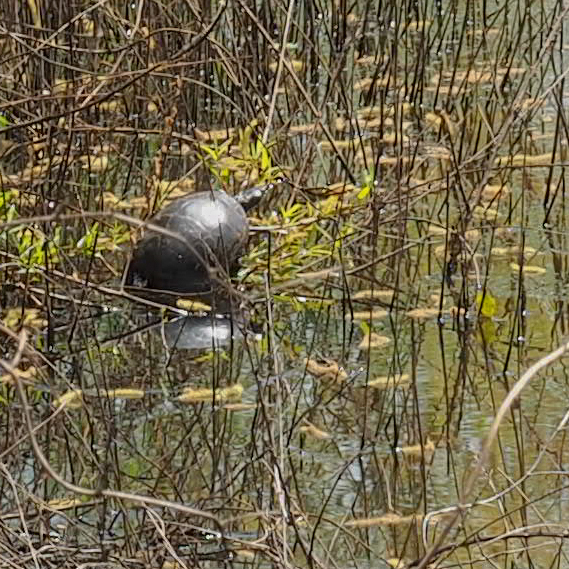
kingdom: Animalia
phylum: Chordata
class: Testudines
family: Emydidae
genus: Chrysemys
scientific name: Chrysemys picta
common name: Painted turtle
